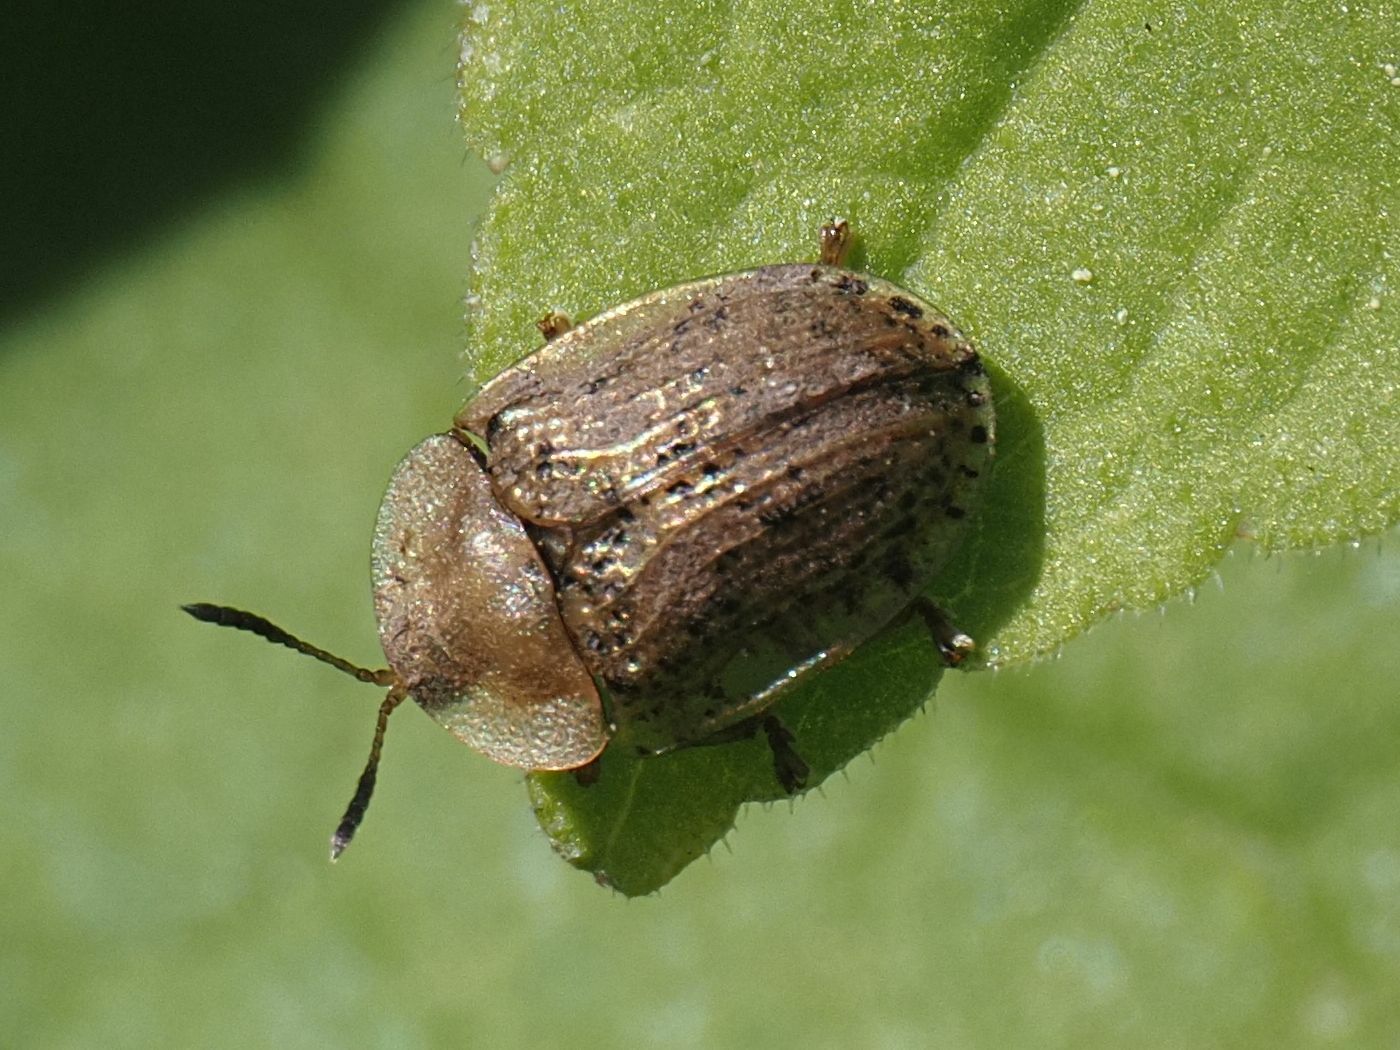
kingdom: Animalia
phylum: Arthropoda
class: Insecta
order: Coleoptera
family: Chrysomelidae
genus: Cassida
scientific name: Cassida nebulosa
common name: Beet tortoise beetle
